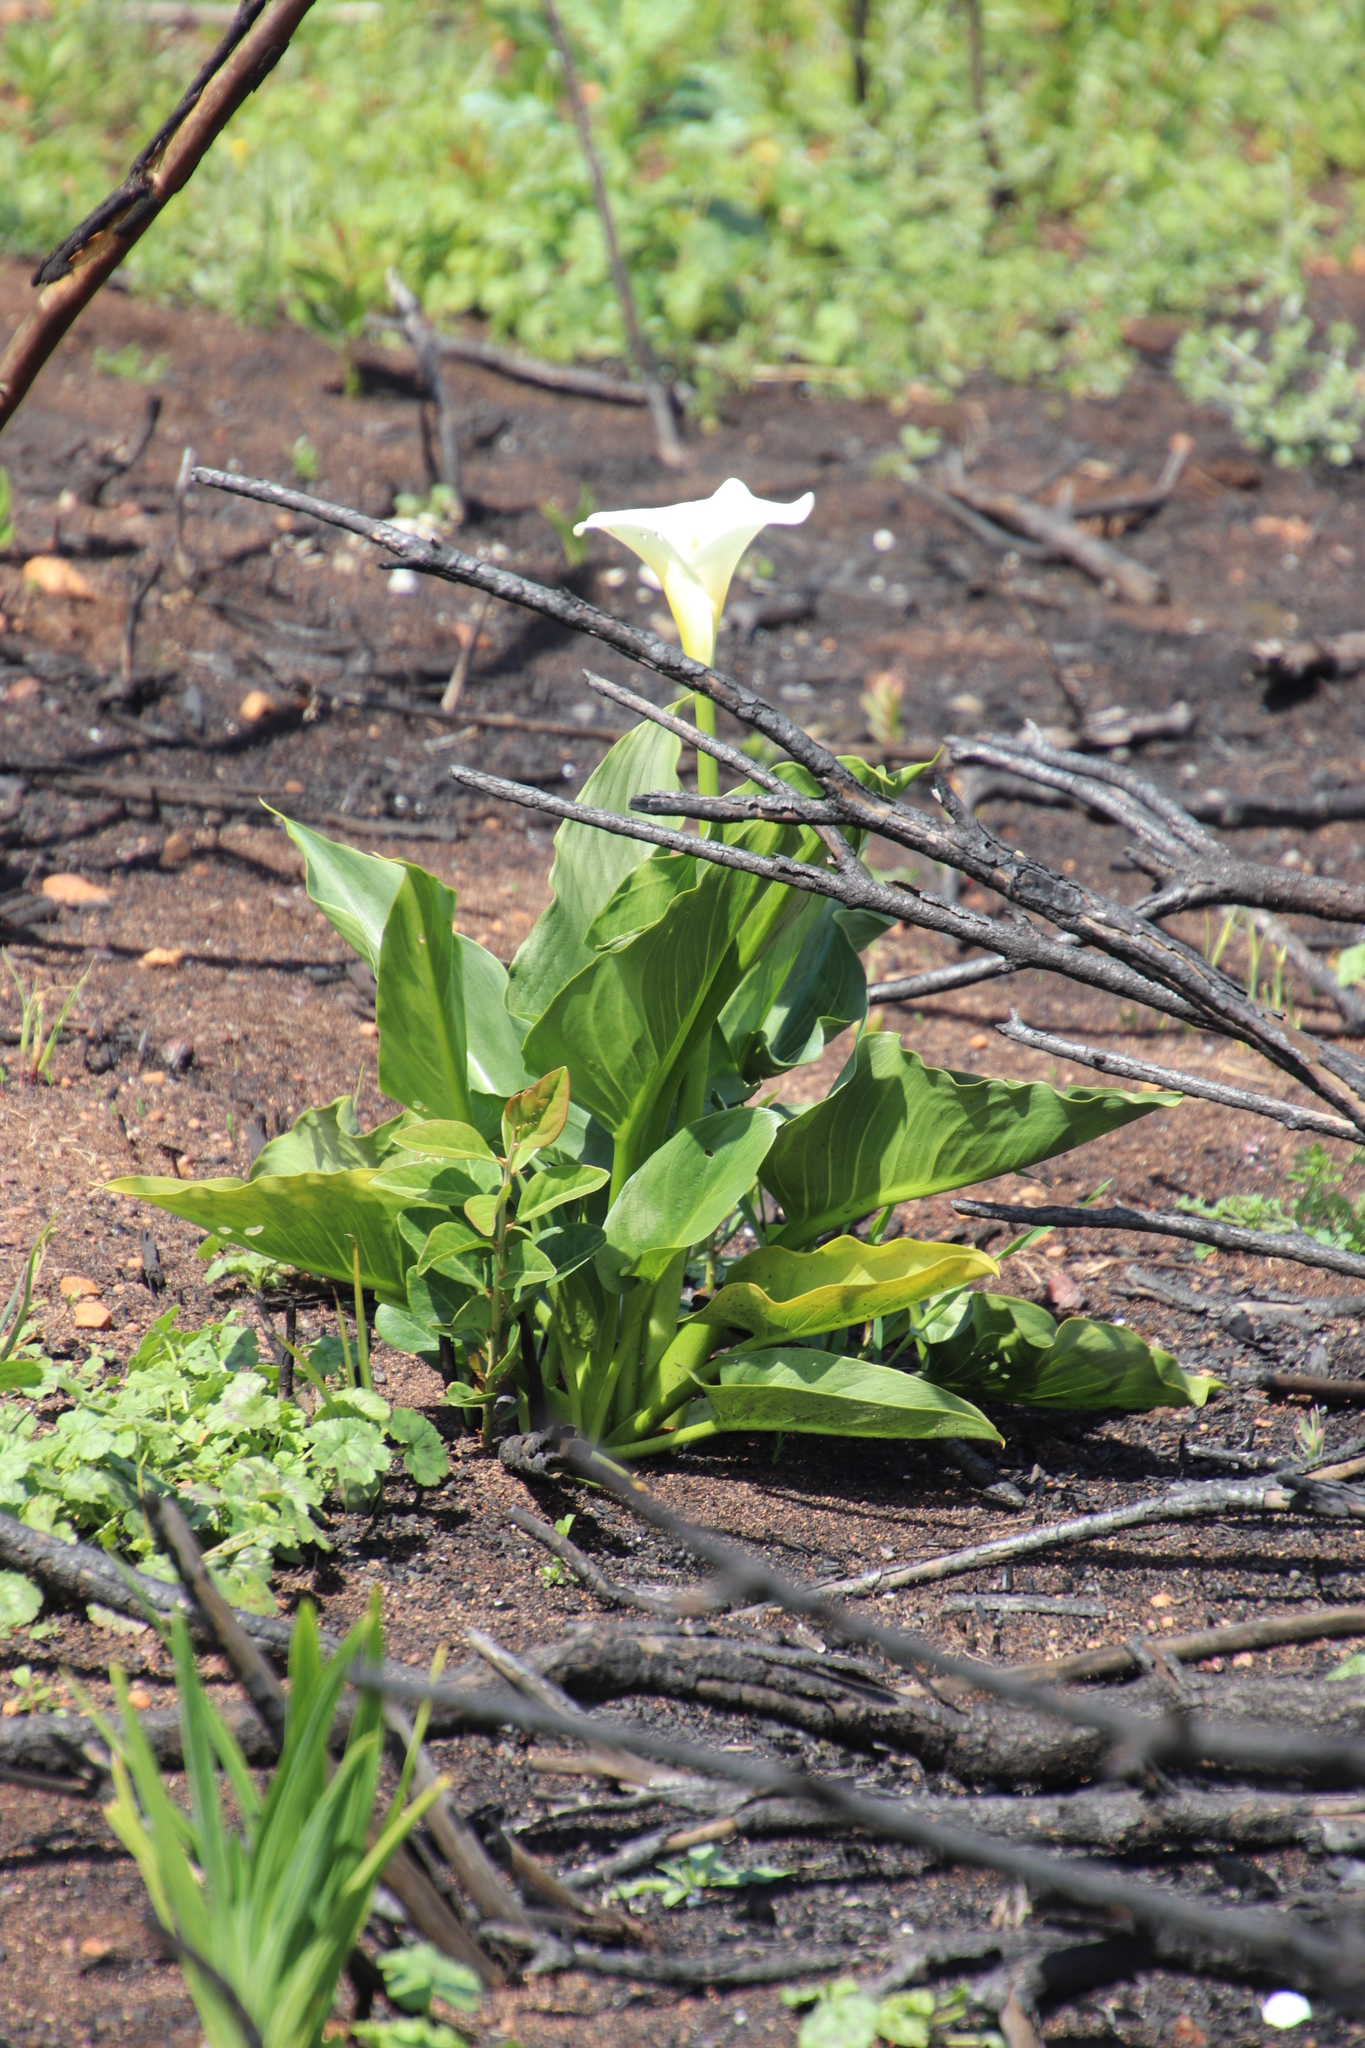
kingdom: Plantae
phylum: Tracheophyta
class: Liliopsida
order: Alismatales
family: Araceae
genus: Zantedeschia
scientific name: Zantedeschia aethiopica
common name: Altar-lily
